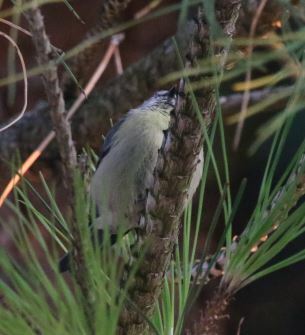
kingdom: Animalia
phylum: Chordata
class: Aves
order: Passeriformes
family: Paridae
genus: Cyanistes
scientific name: Cyanistes caeruleus
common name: Eurasian blue tit
